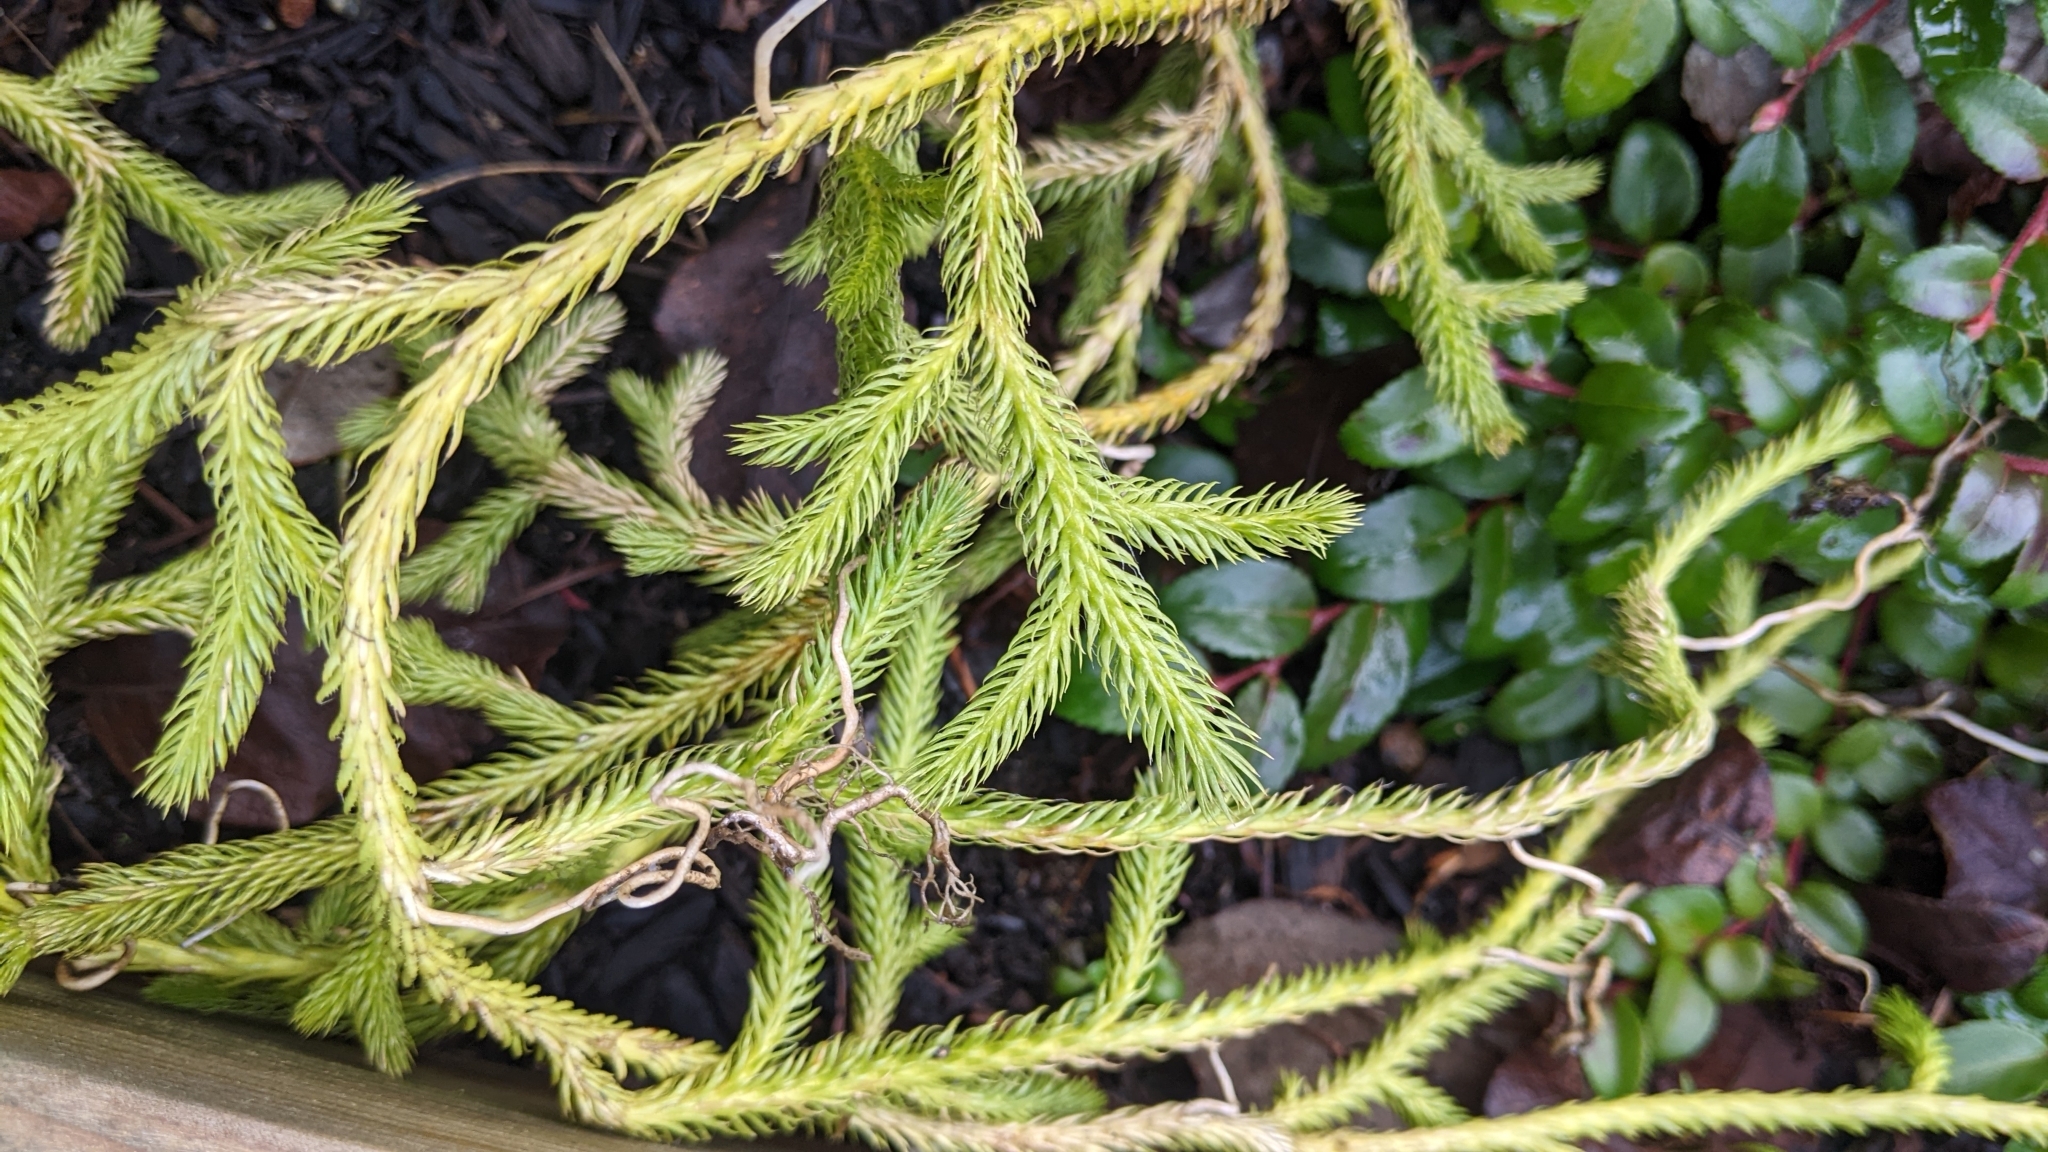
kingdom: Plantae
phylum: Tracheophyta
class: Lycopodiopsida
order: Lycopodiales
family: Lycopodiaceae
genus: Lycopodium
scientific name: Lycopodium clavatum
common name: Stag's-horn clubmoss
